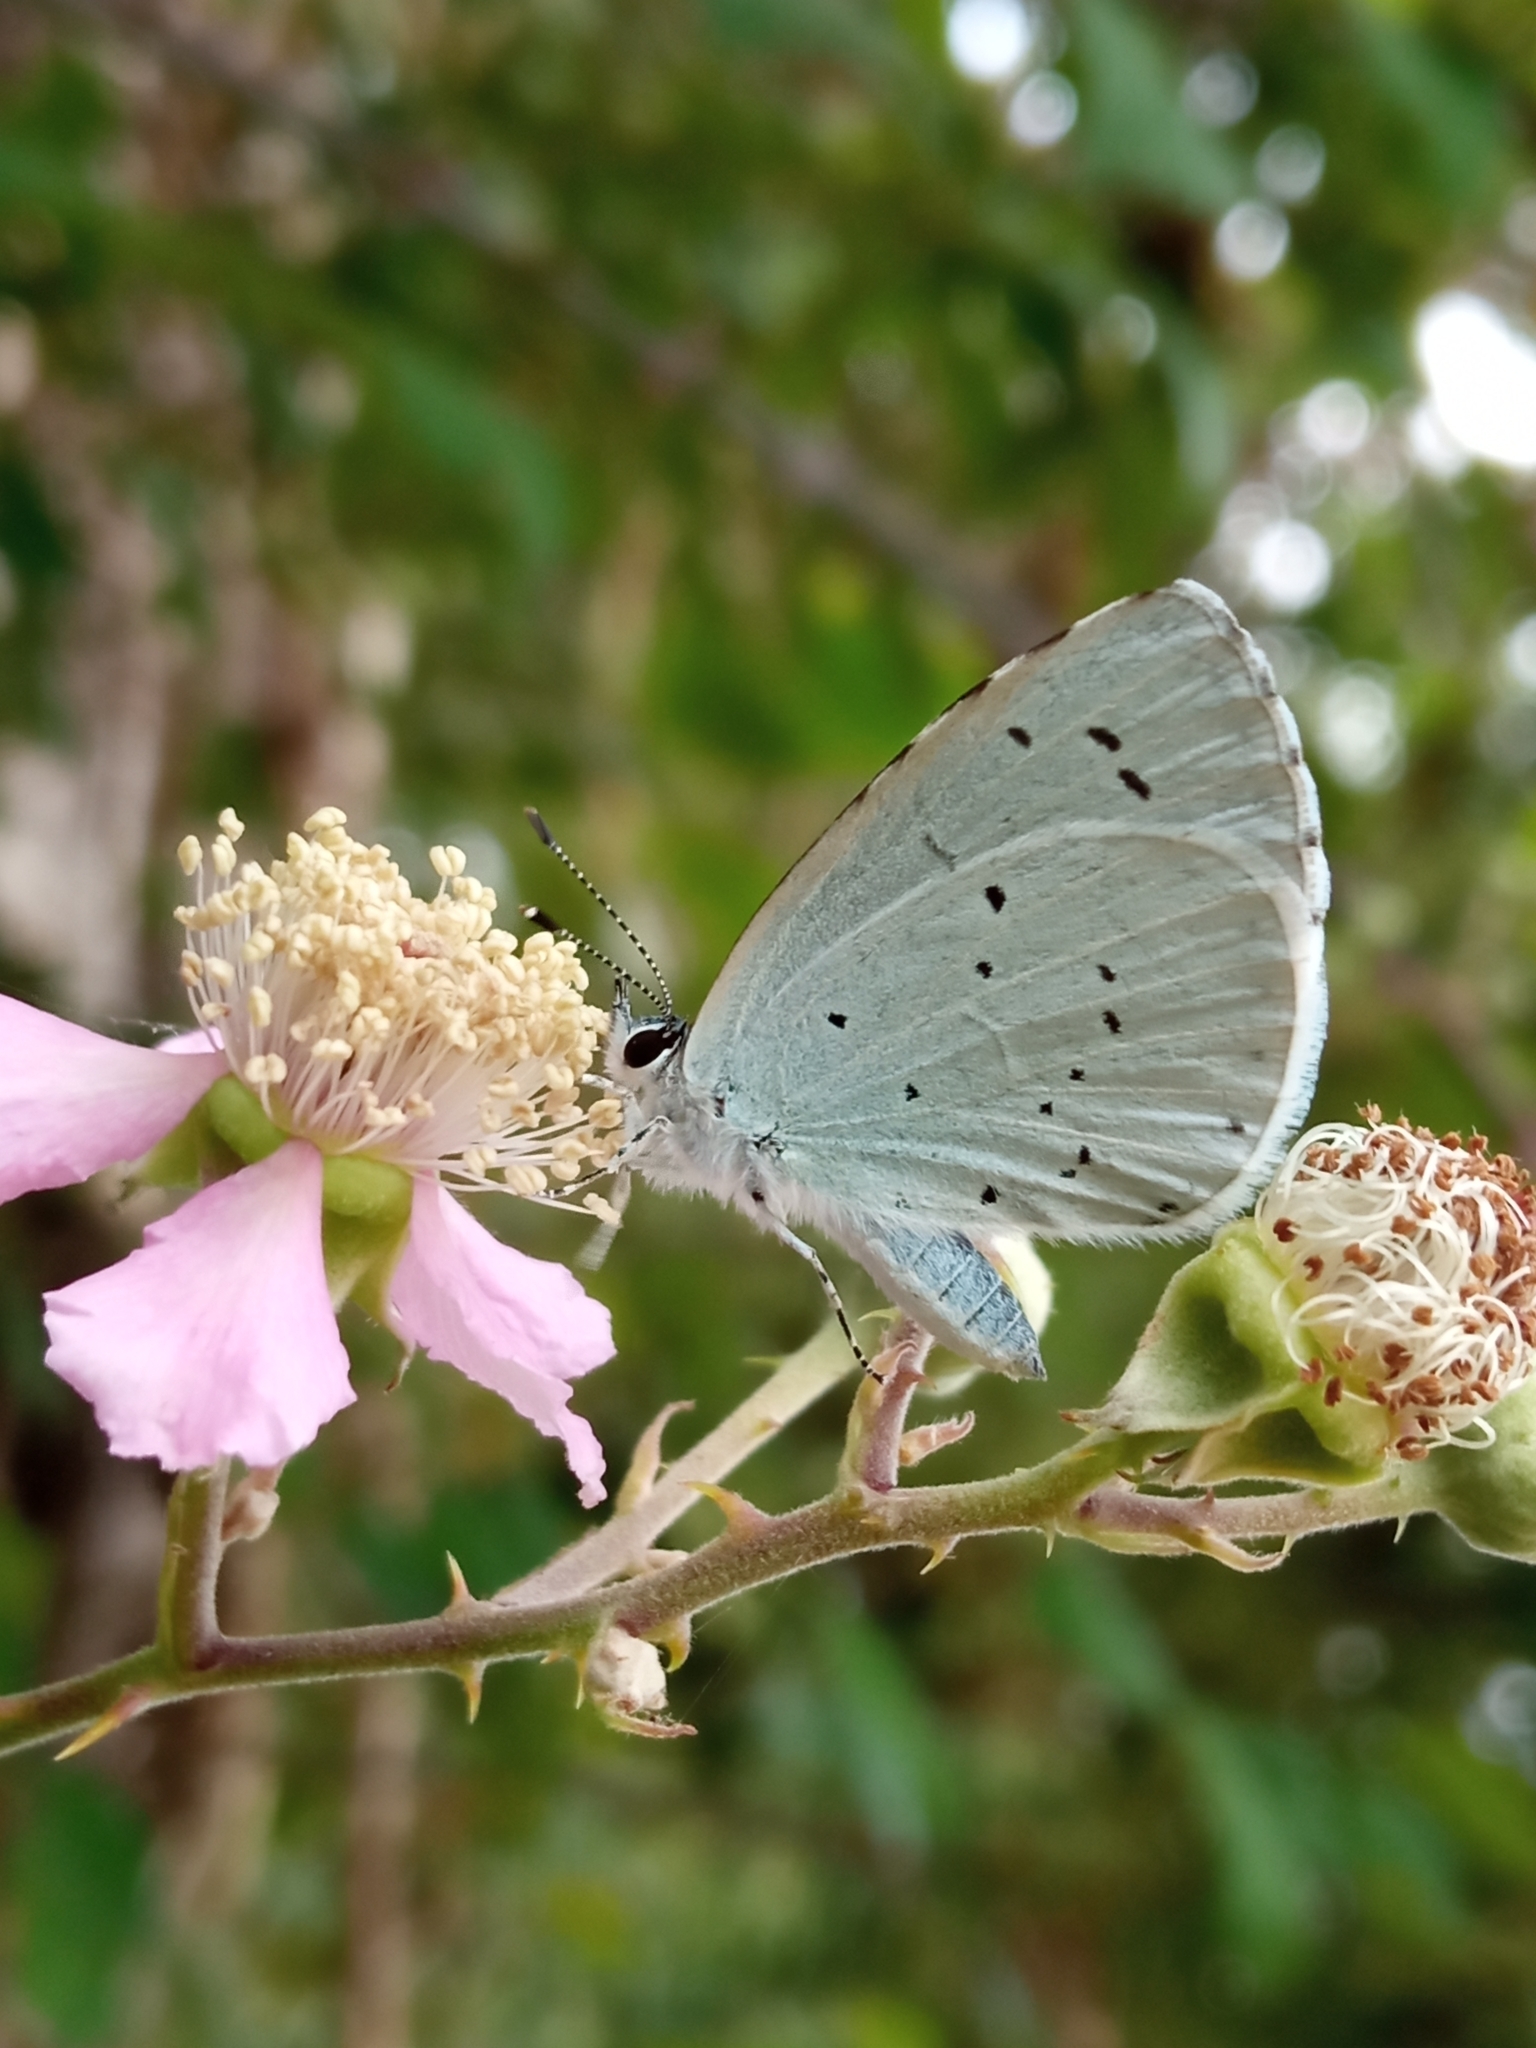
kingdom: Animalia
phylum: Arthropoda
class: Insecta
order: Lepidoptera
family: Lycaenidae
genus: Celastrina
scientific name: Celastrina argiolus
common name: Holly blue
